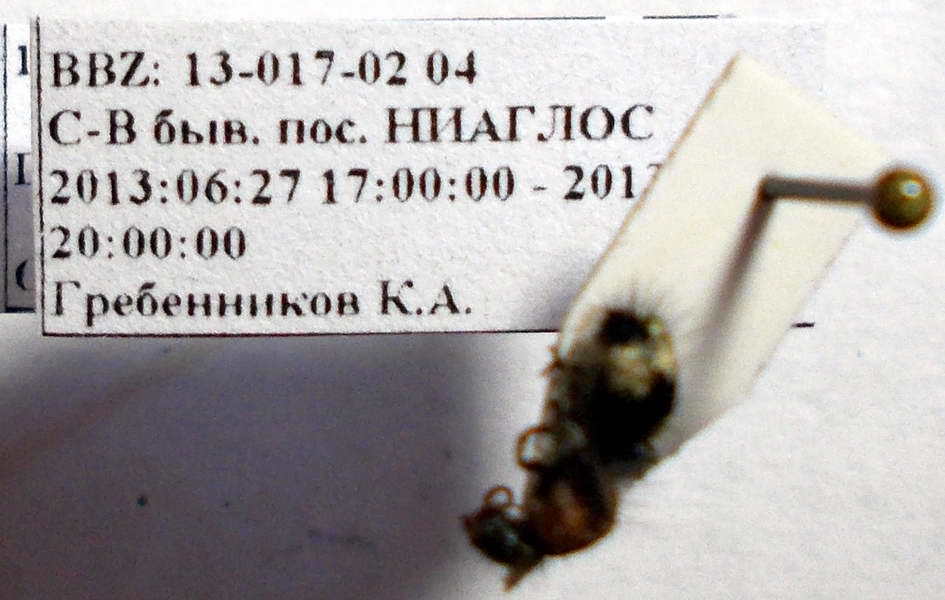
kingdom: Animalia
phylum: Arthropoda
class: Insecta
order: Hymenoptera
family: Mutillidae
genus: Dasylabris
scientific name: Dasylabris regalis
